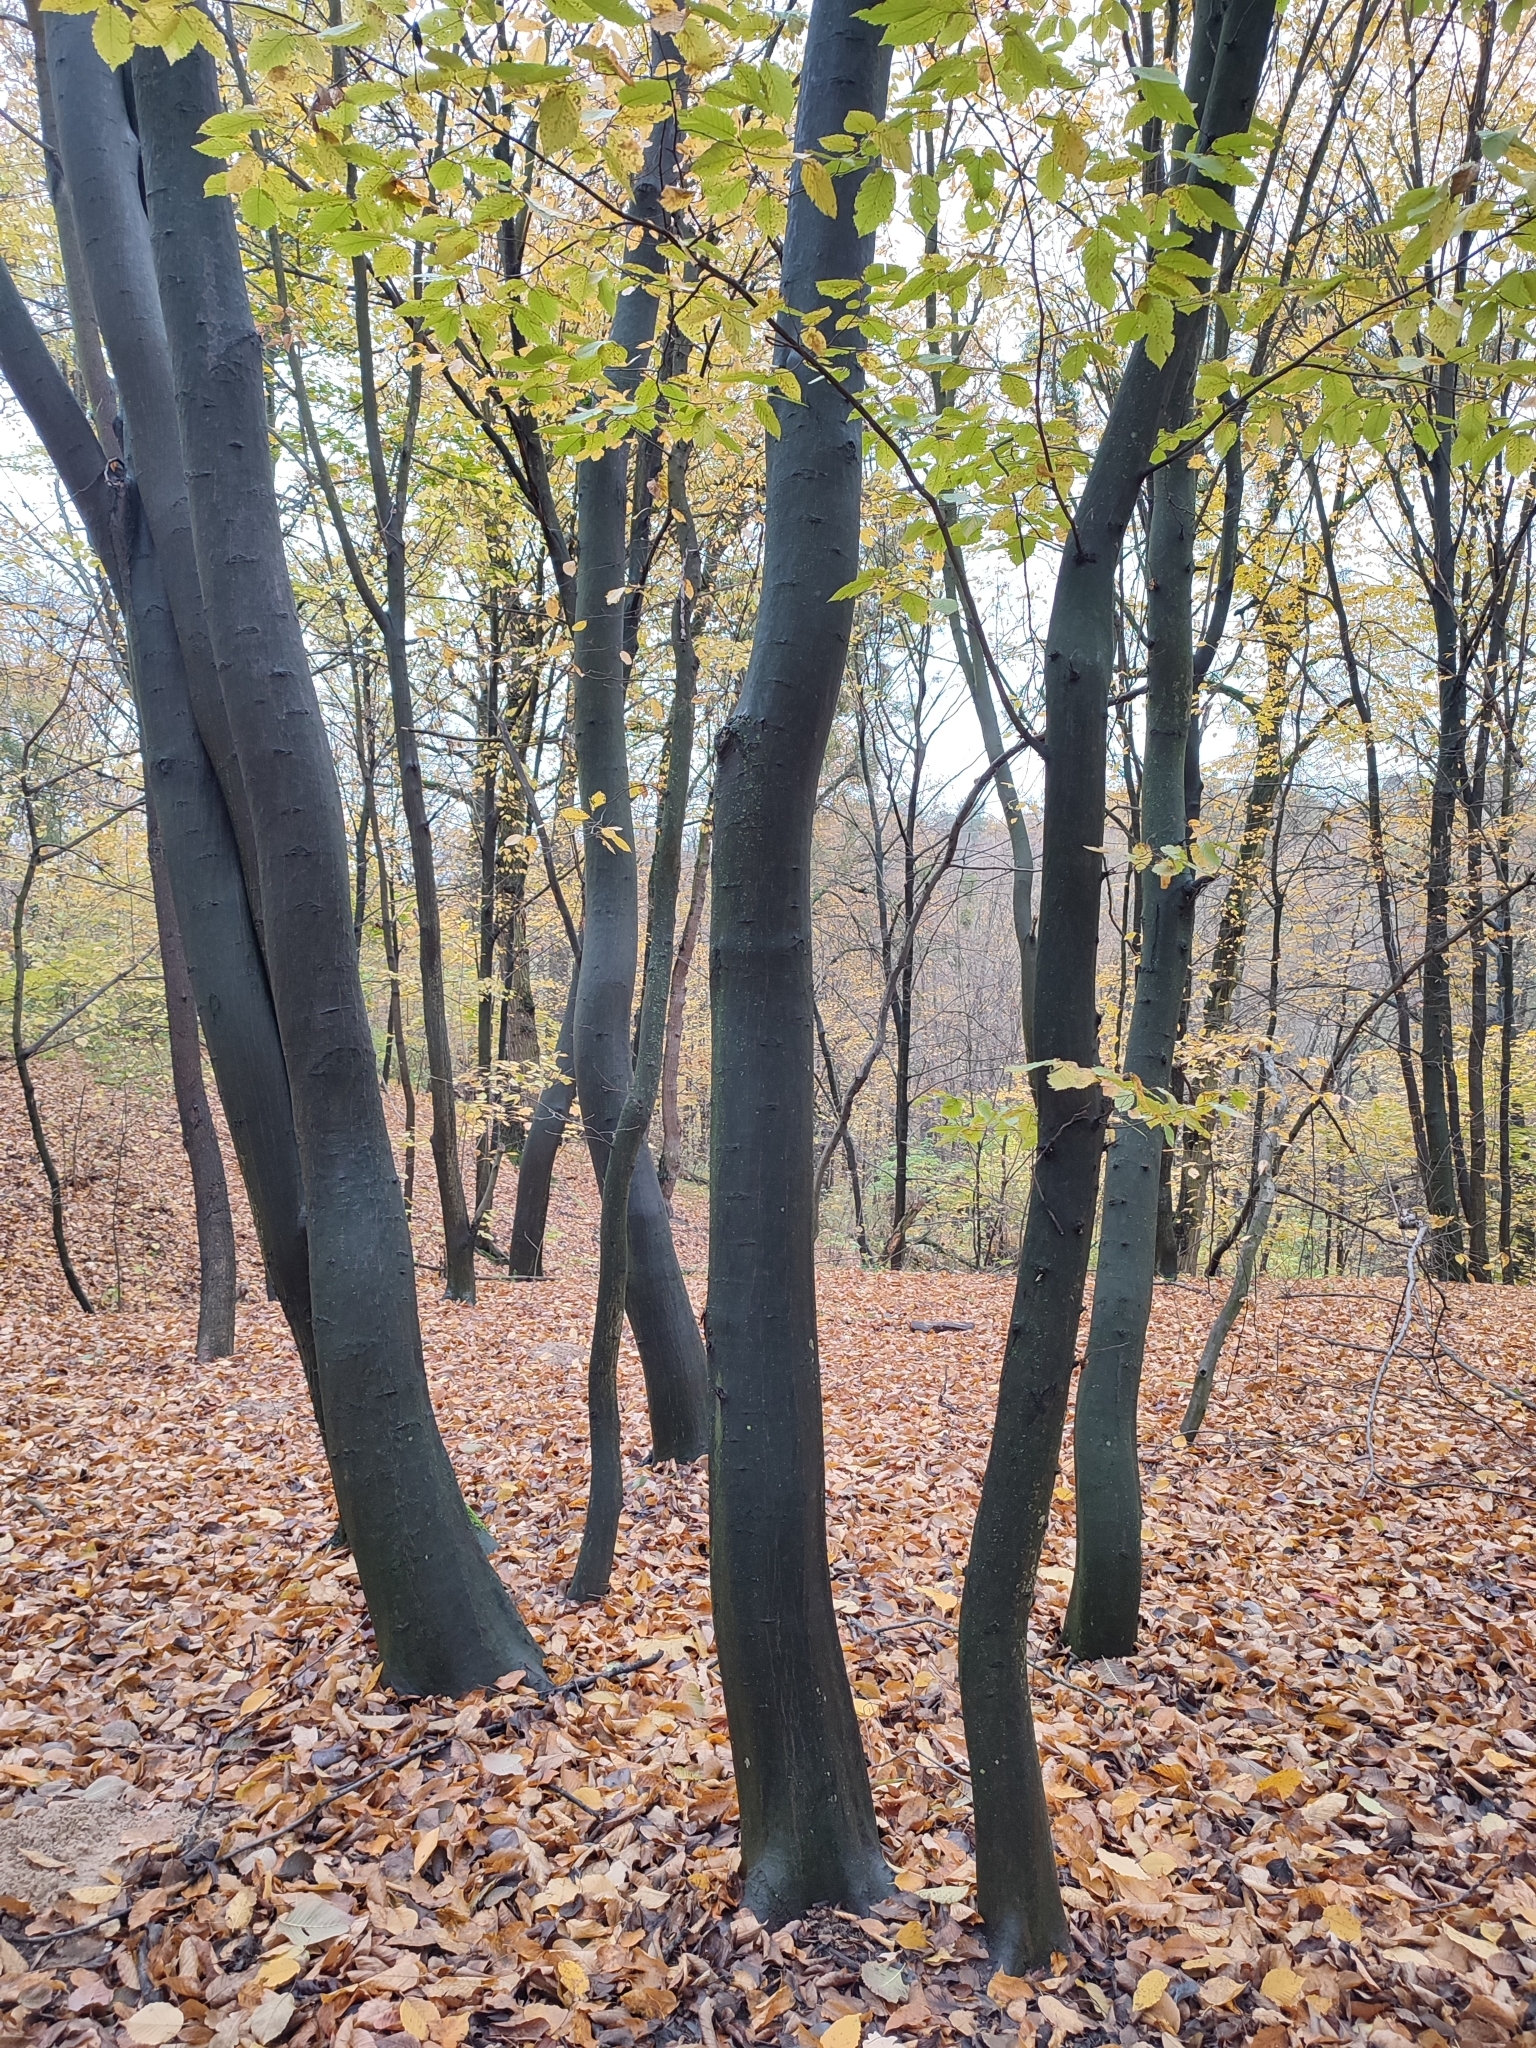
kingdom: Plantae
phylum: Tracheophyta
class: Magnoliopsida
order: Fagales
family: Betulaceae
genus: Carpinus
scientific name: Carpinus betulus
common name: Hornbeam
